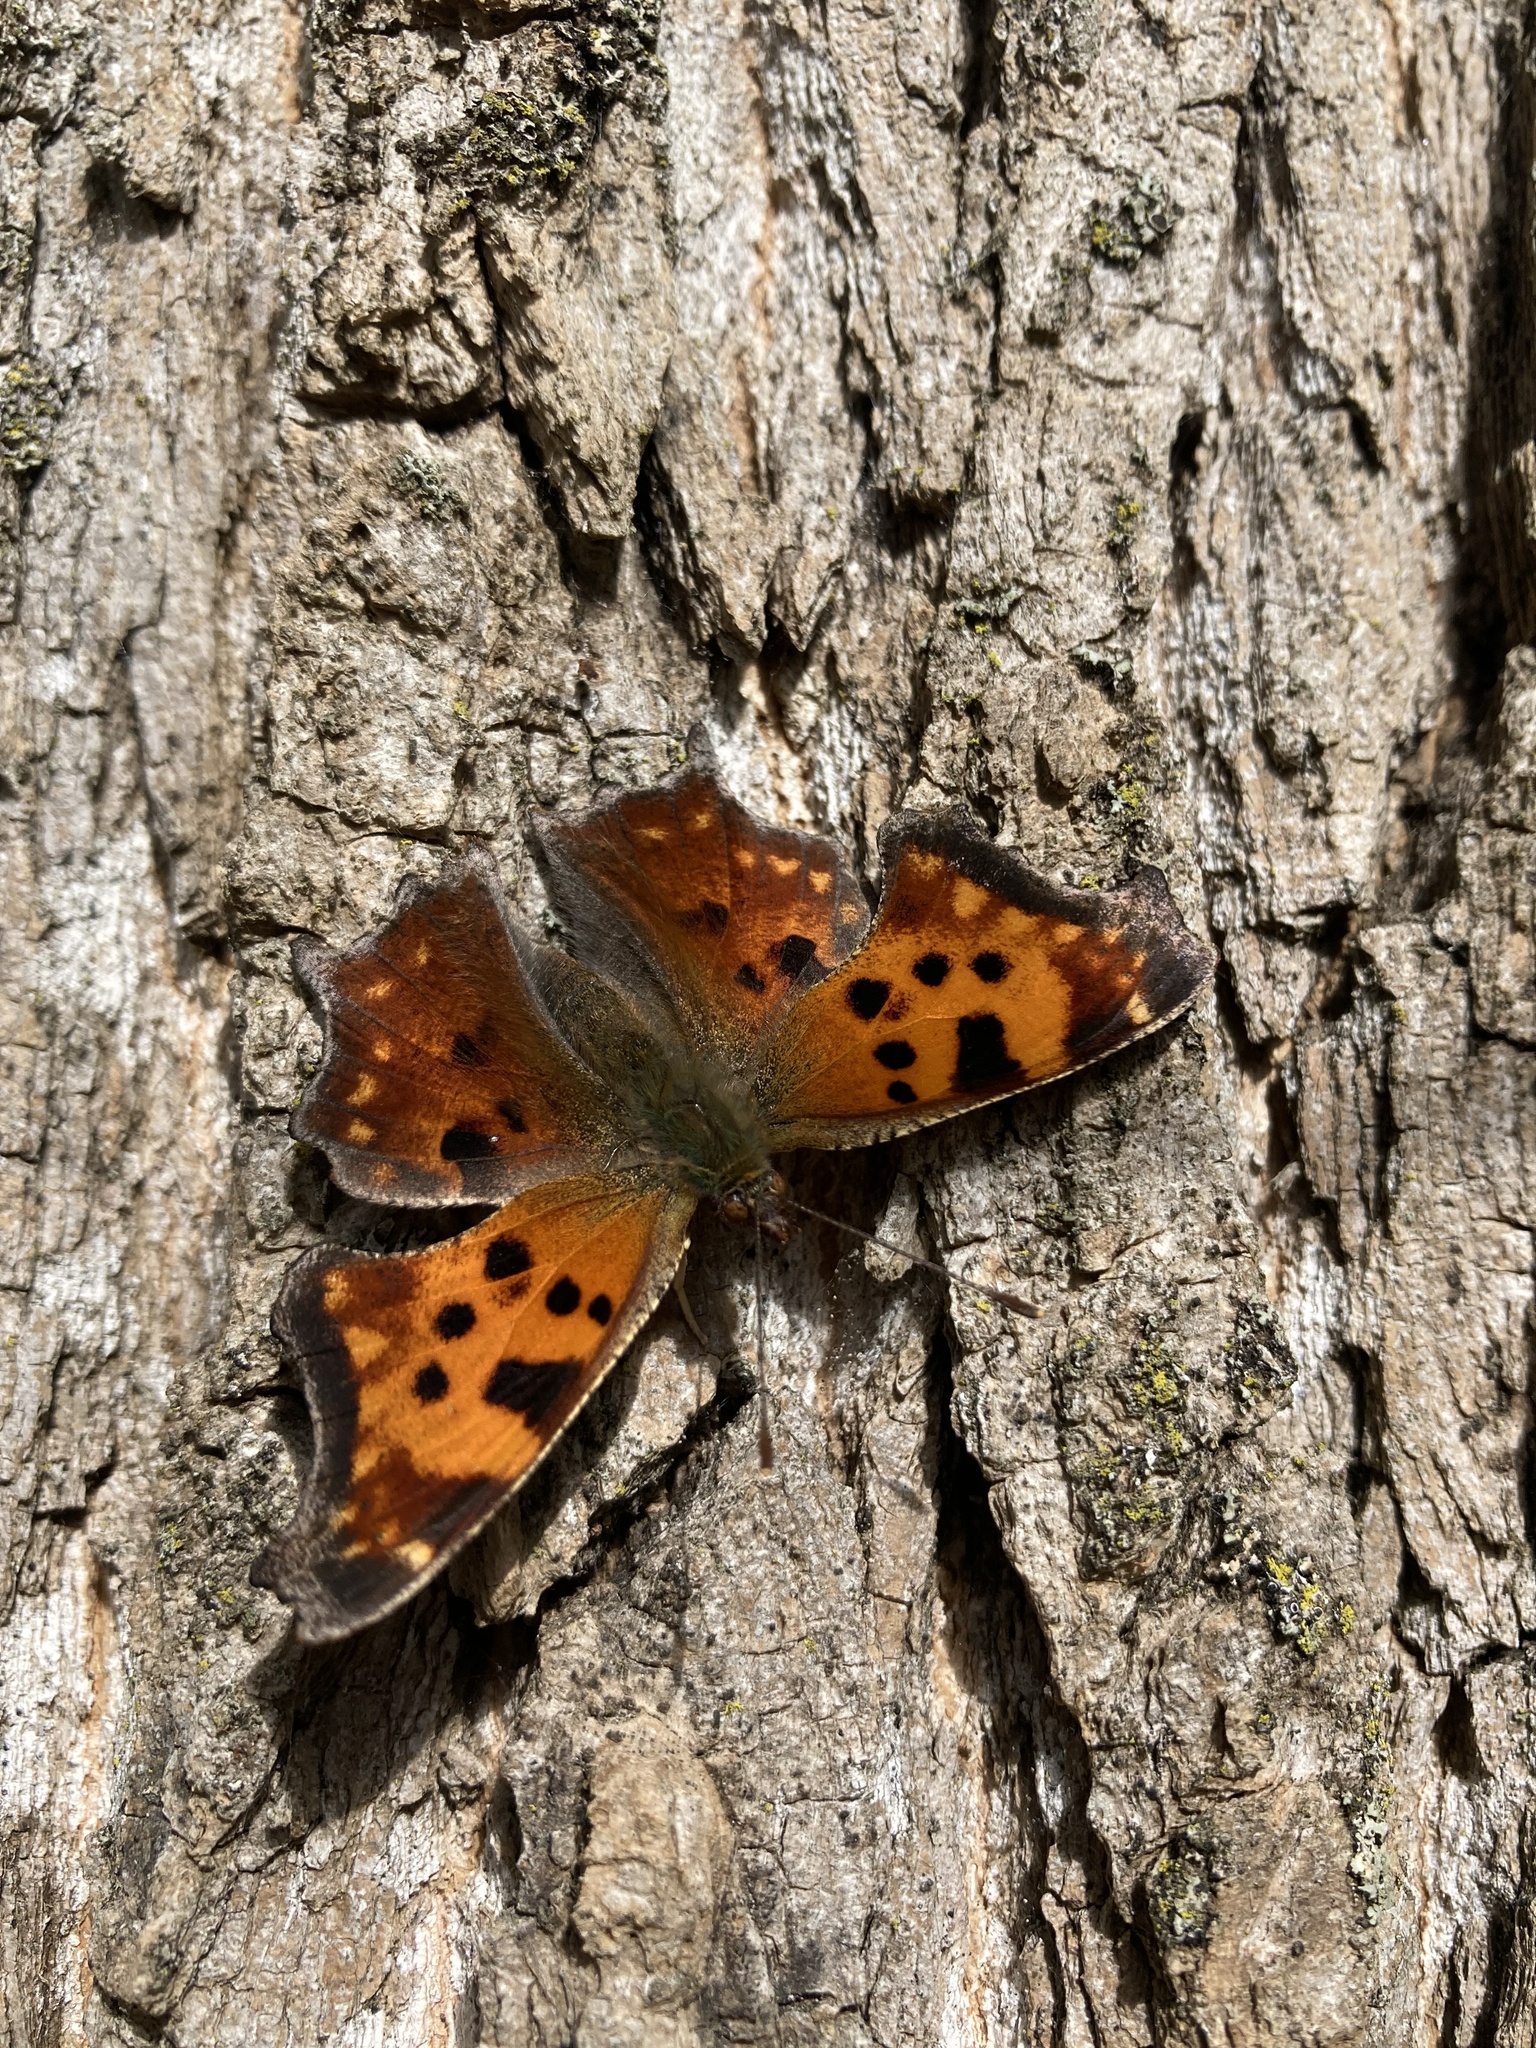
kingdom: Animalia
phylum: Arthropoda
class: Insecta
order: Lepidoptera
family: Nymphalidae
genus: Polygonia
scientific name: Polygonia comma
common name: Eastern comma
